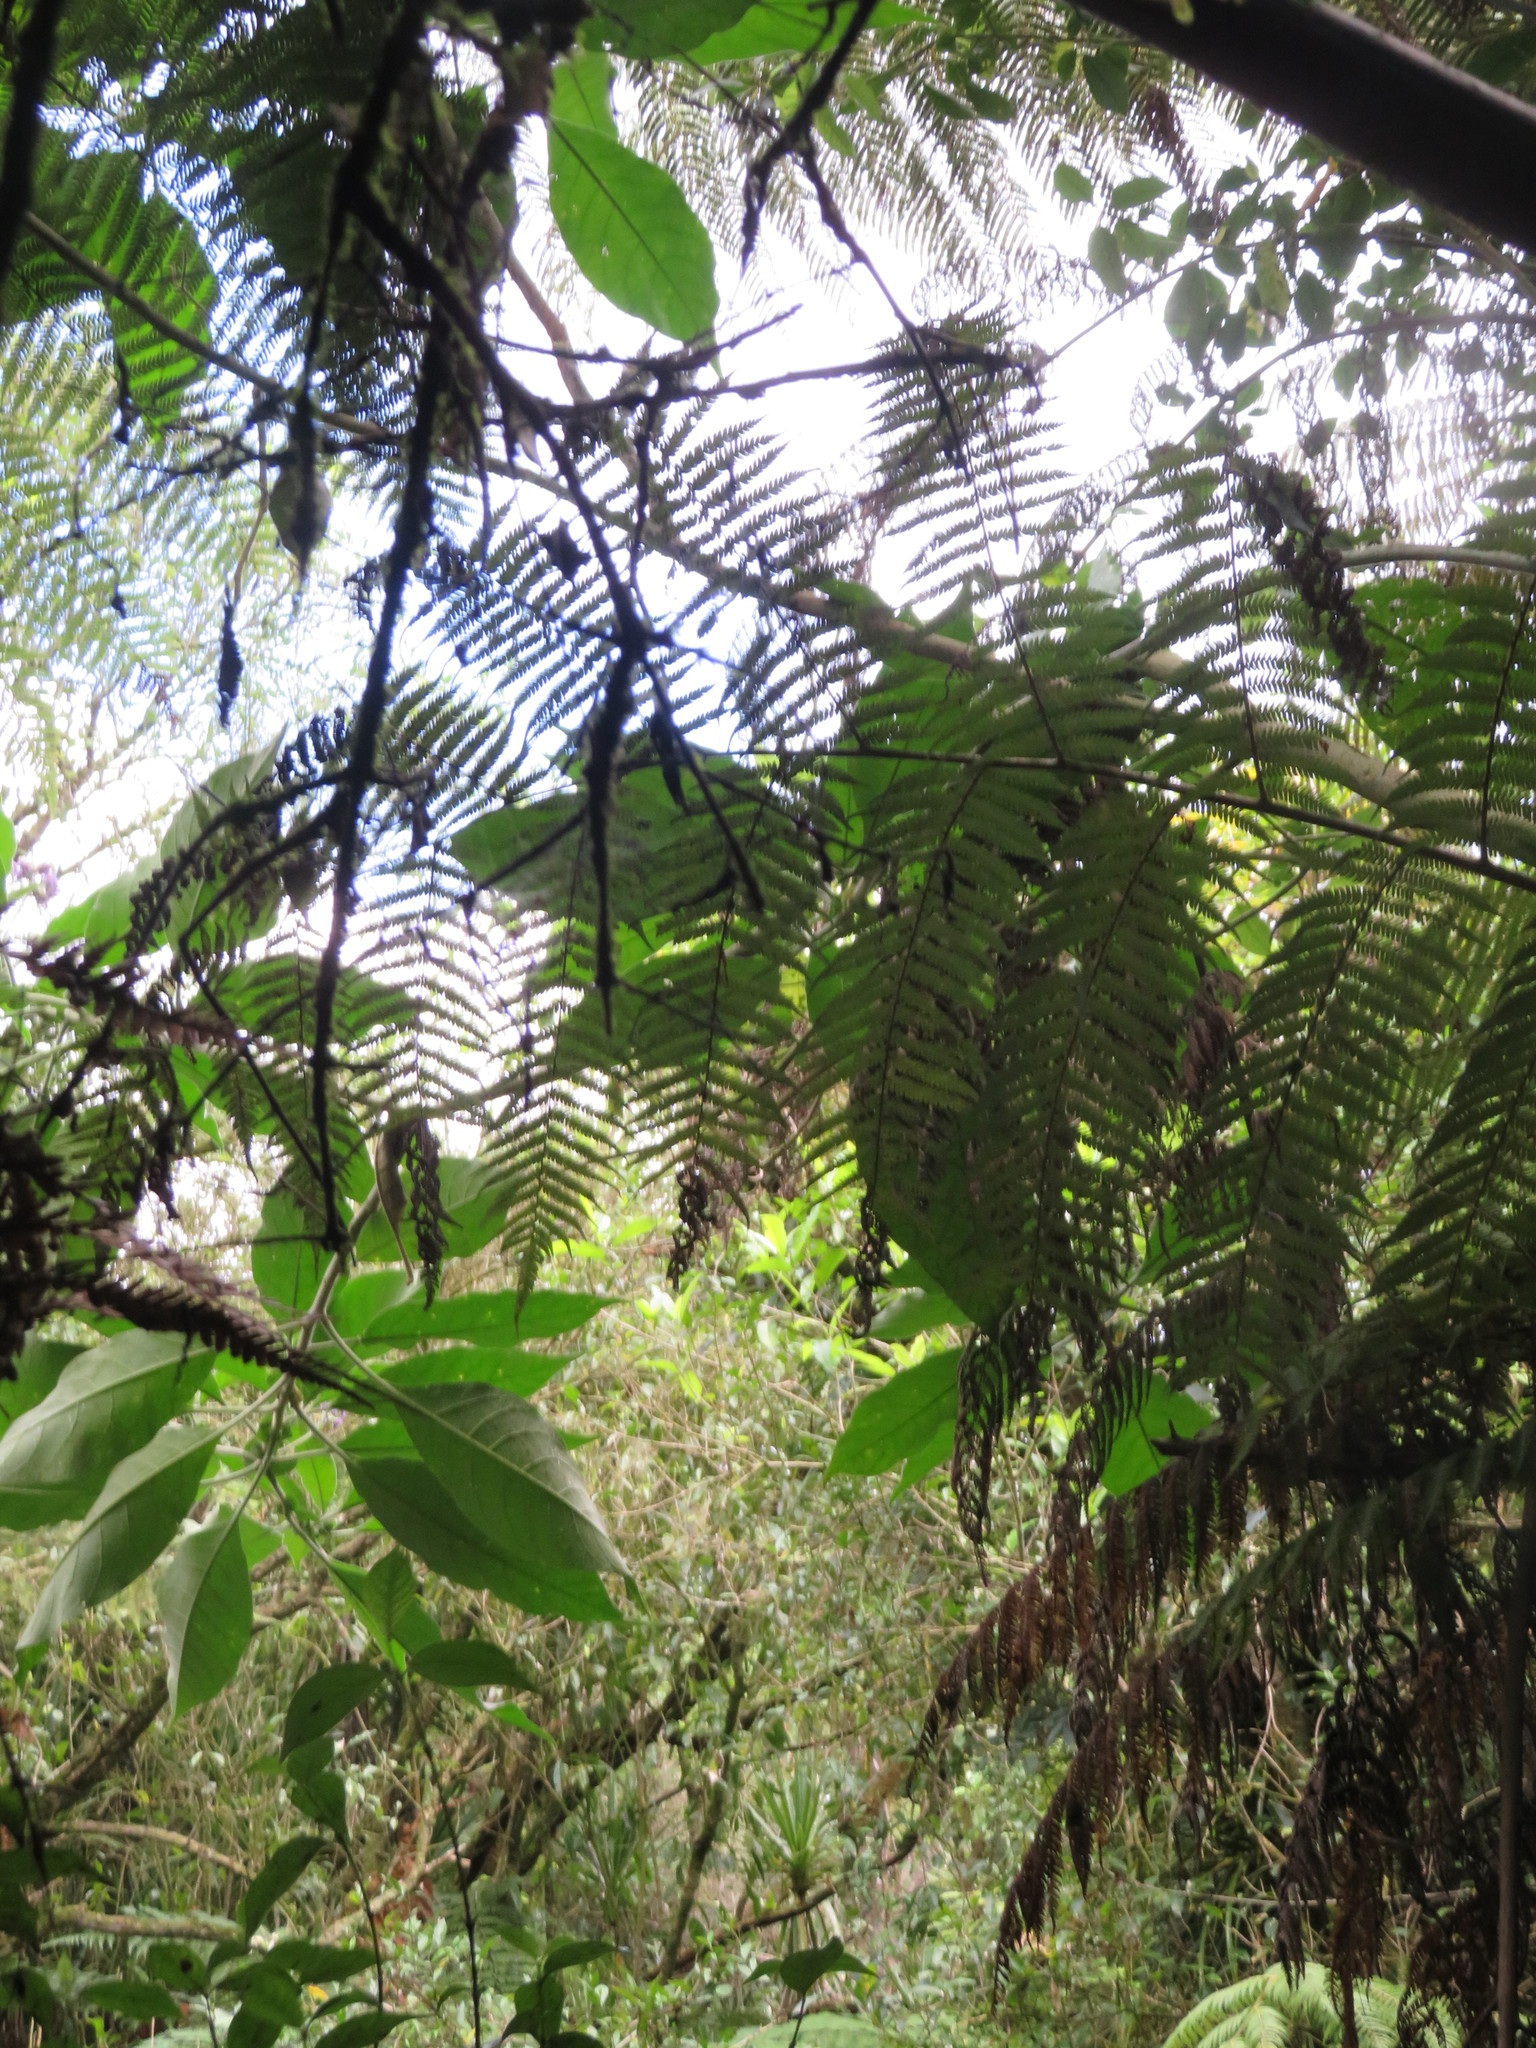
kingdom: Plantae
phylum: Tracheophyta
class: Magnoliopsida
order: Solanales
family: Solanaceae
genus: Solanum
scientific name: Solanum mauritianum
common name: Earleaf nightshade
